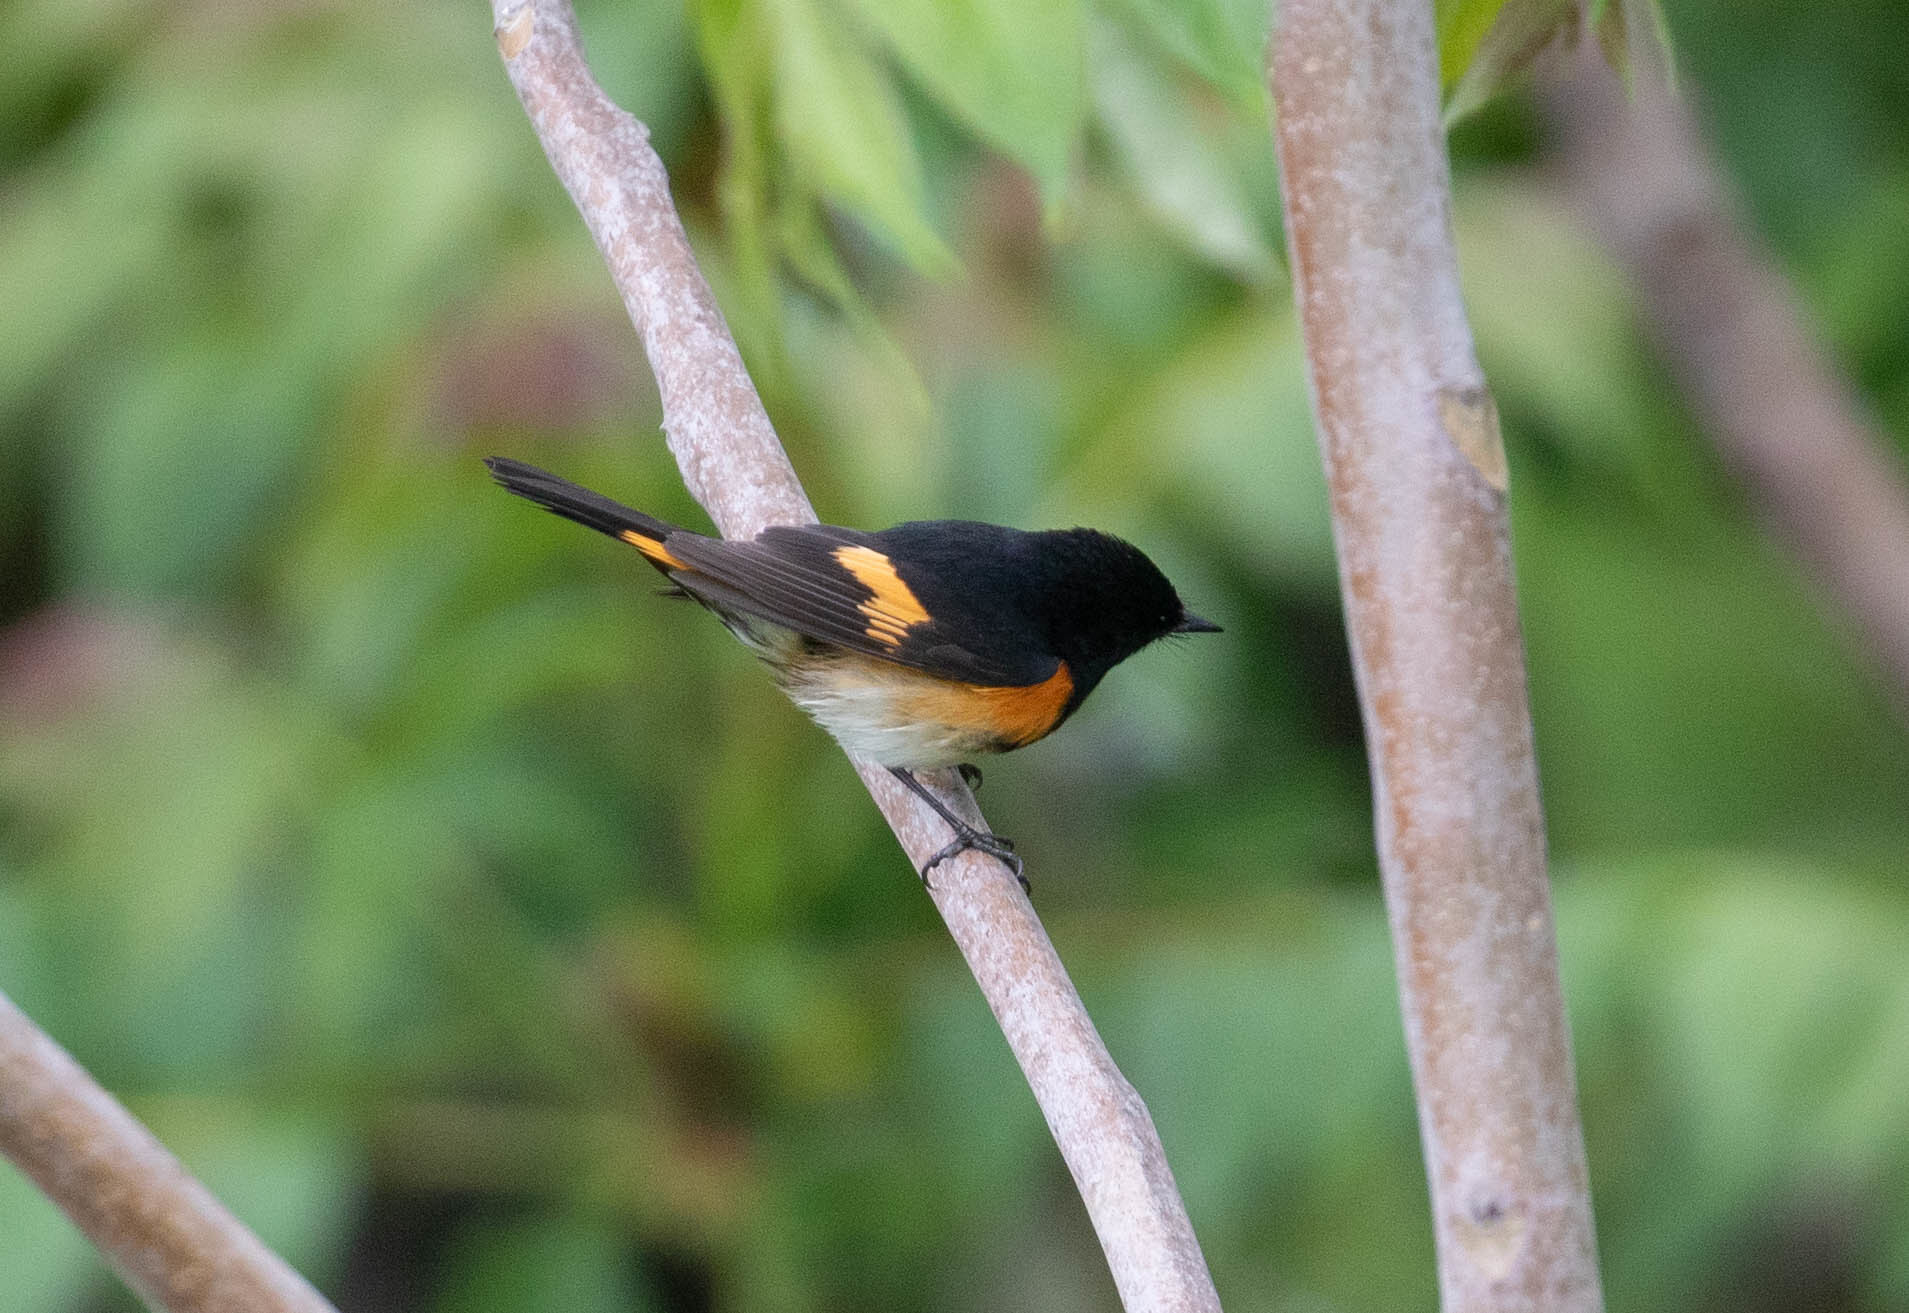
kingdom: Animalia
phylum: Chordata
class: Aves
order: Passeriformes
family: Parulidae
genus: Setophaga
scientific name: Setophaga ruticilla
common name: American redstart
